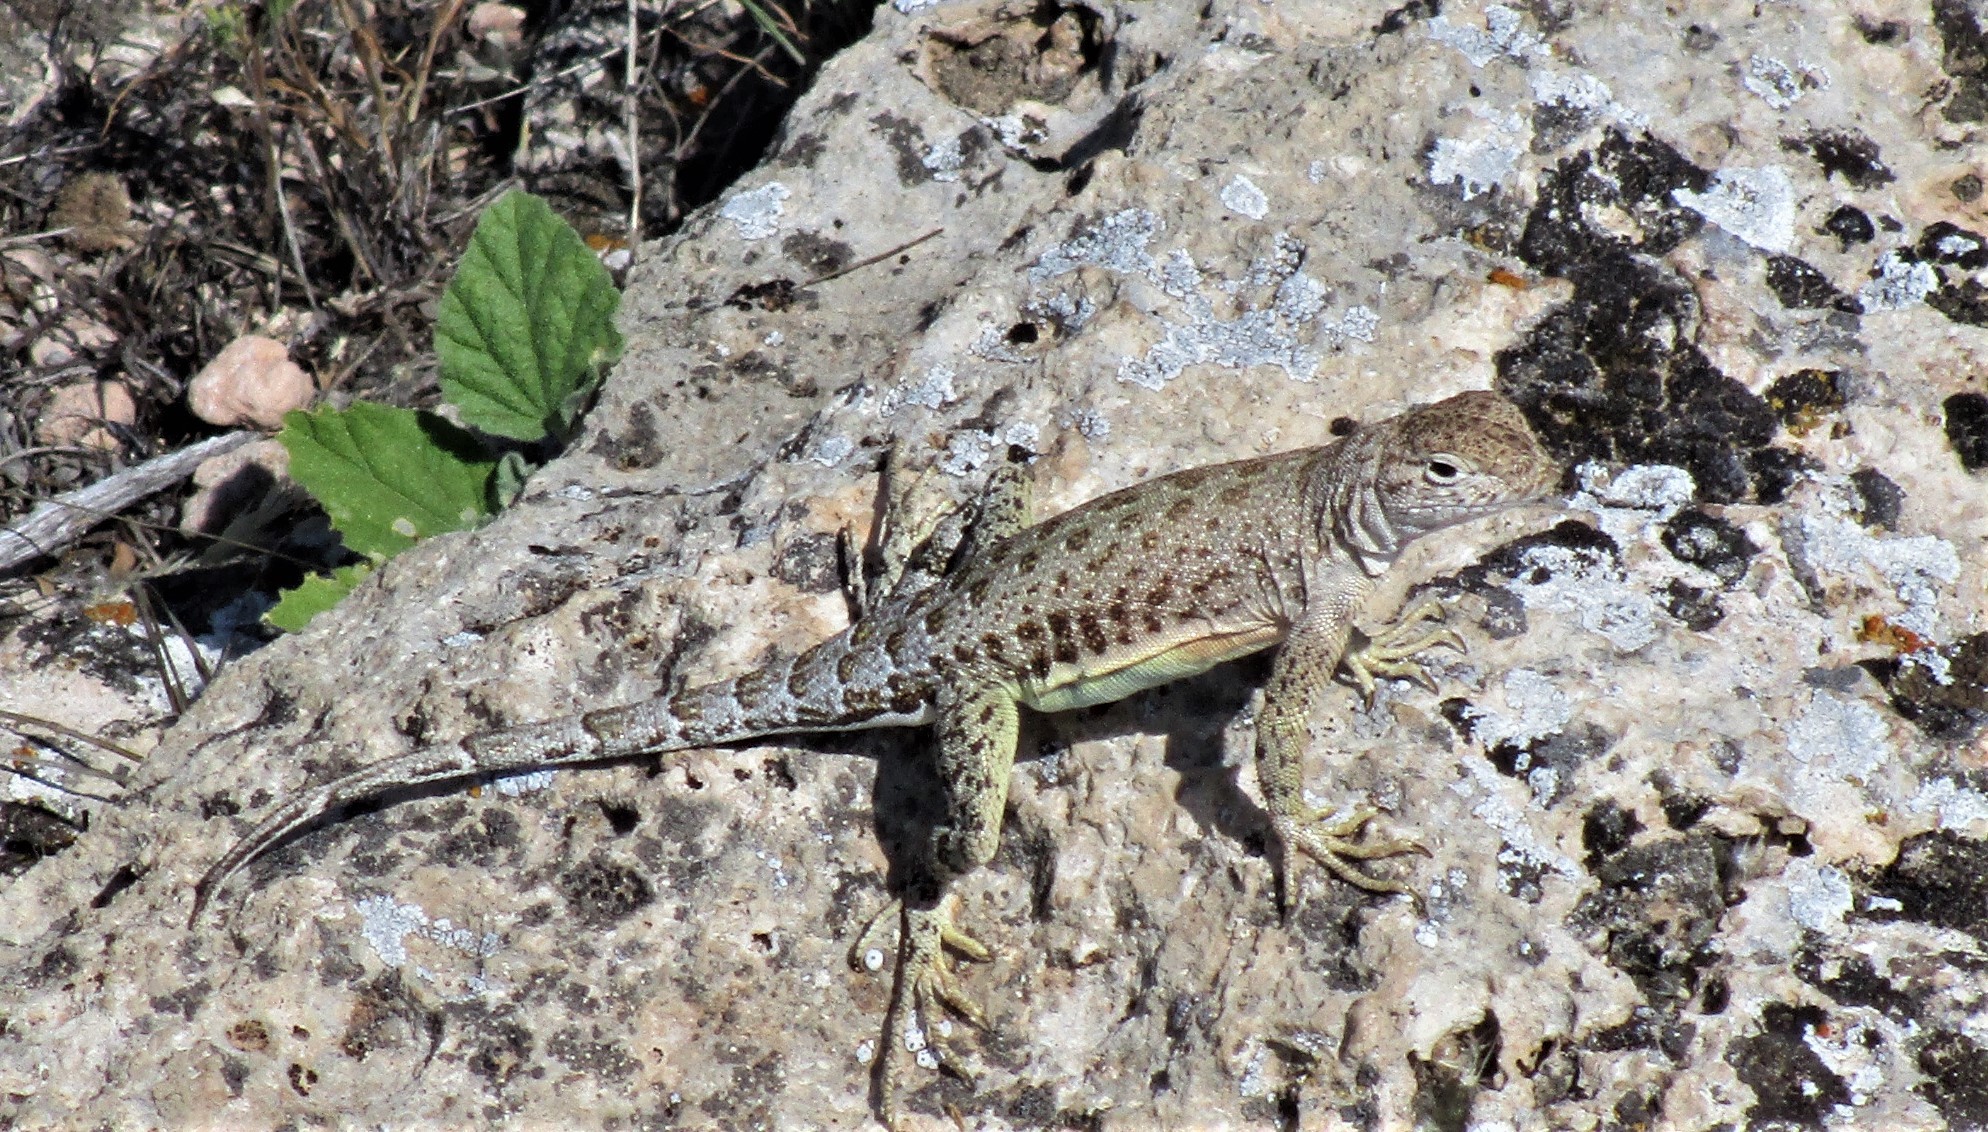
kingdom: Animalia
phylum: Chordata
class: Squamata
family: Phrynosomatidae
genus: Cophosaurus
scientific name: Cophosaurus texanus
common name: Greater earless lizard
